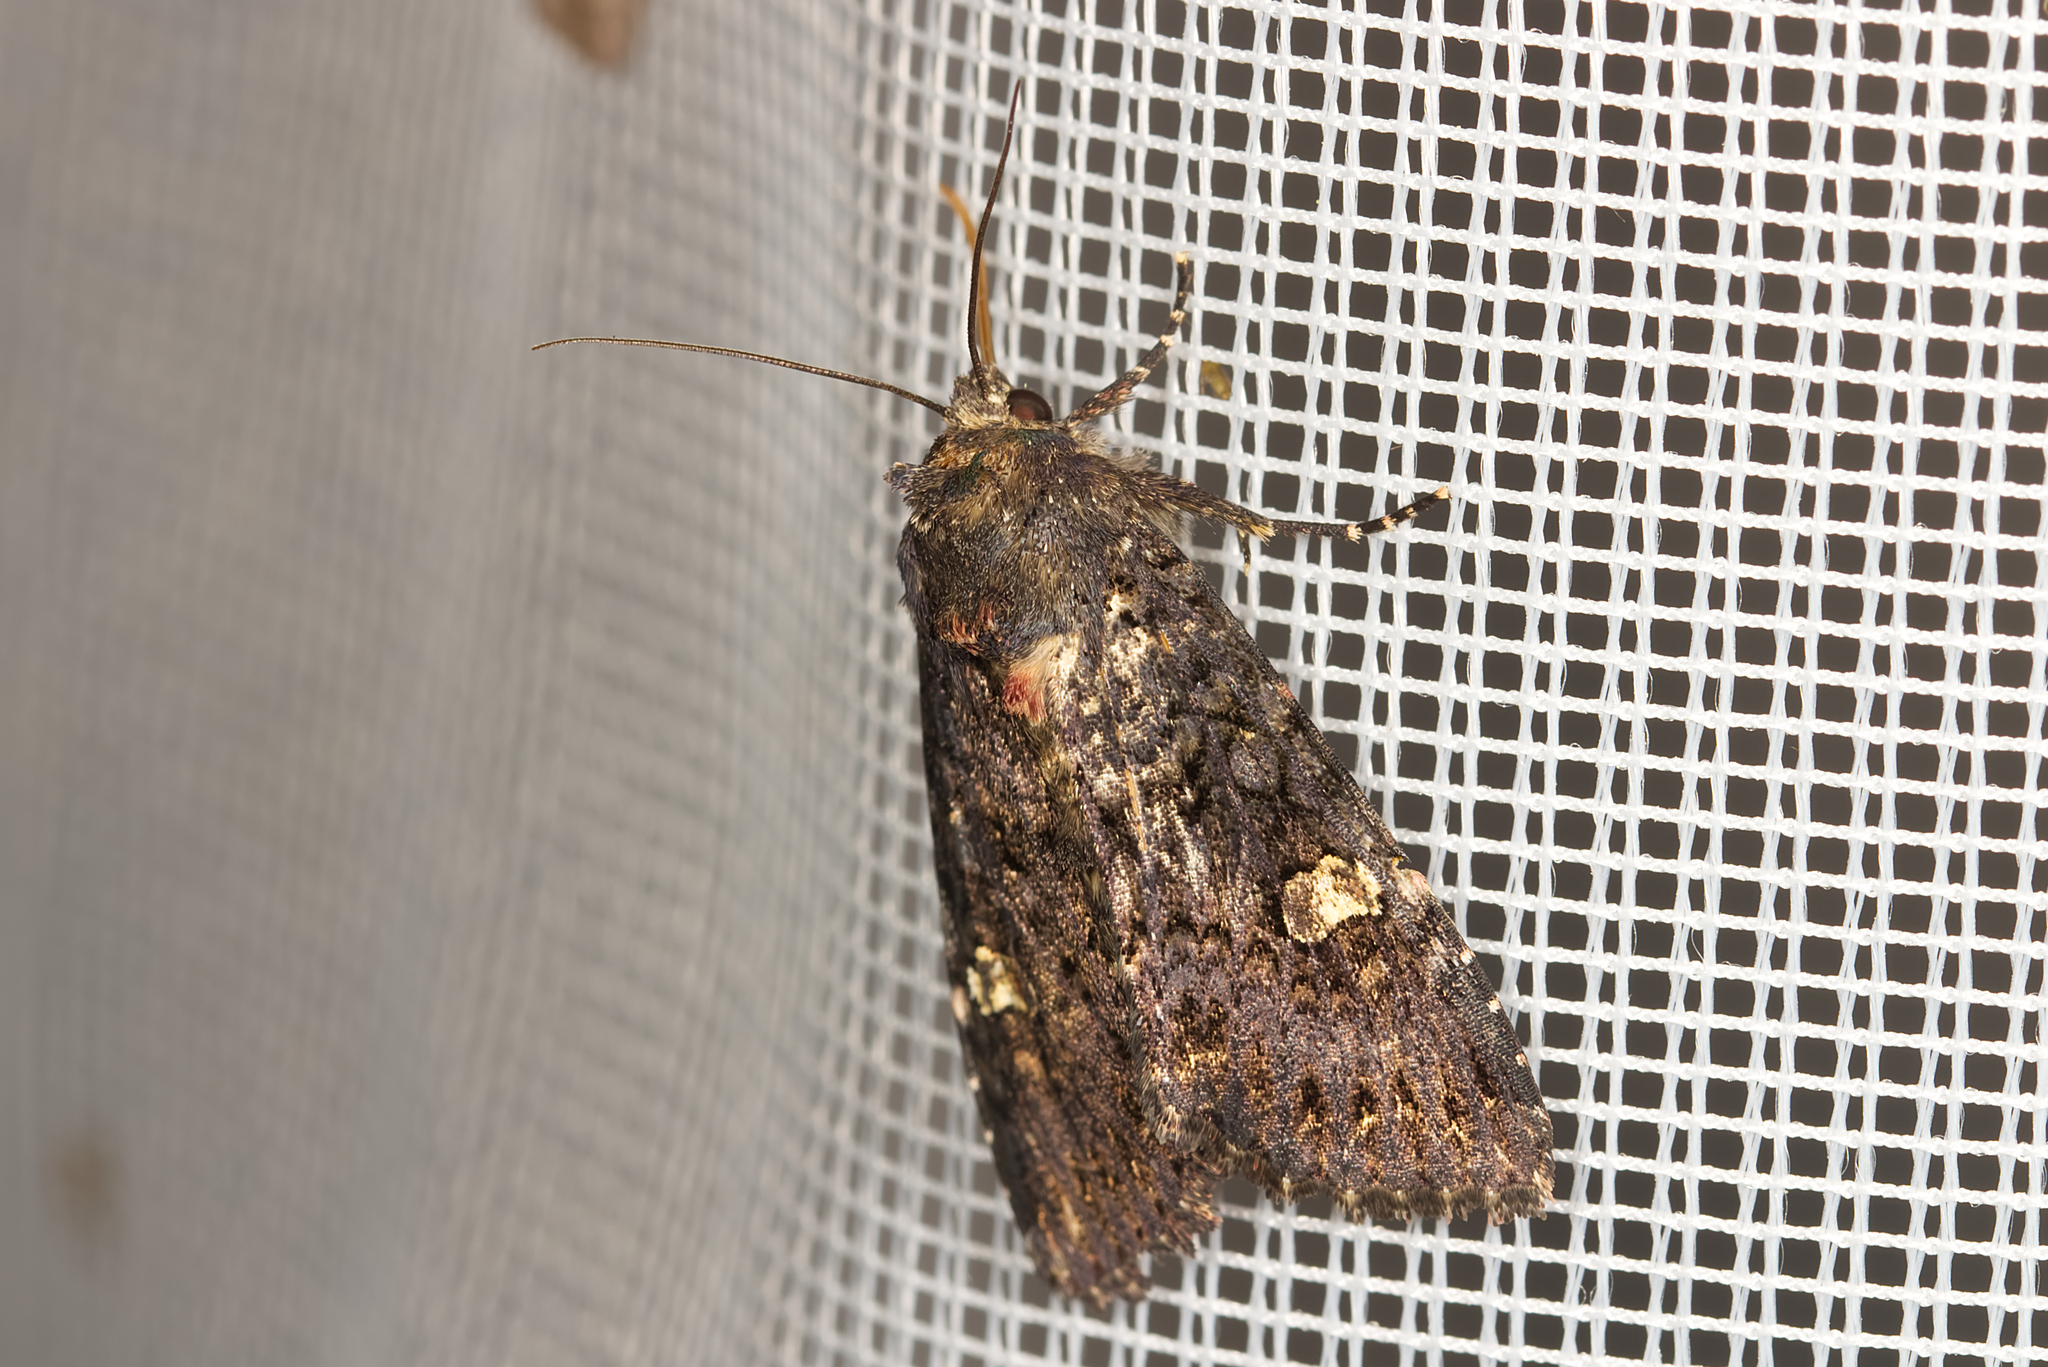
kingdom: Animalia
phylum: Arthropoda
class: Insecta
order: Lepidoptera
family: Noctuidae
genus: Melanchra
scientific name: Melanchra persicariae
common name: Dot moth
